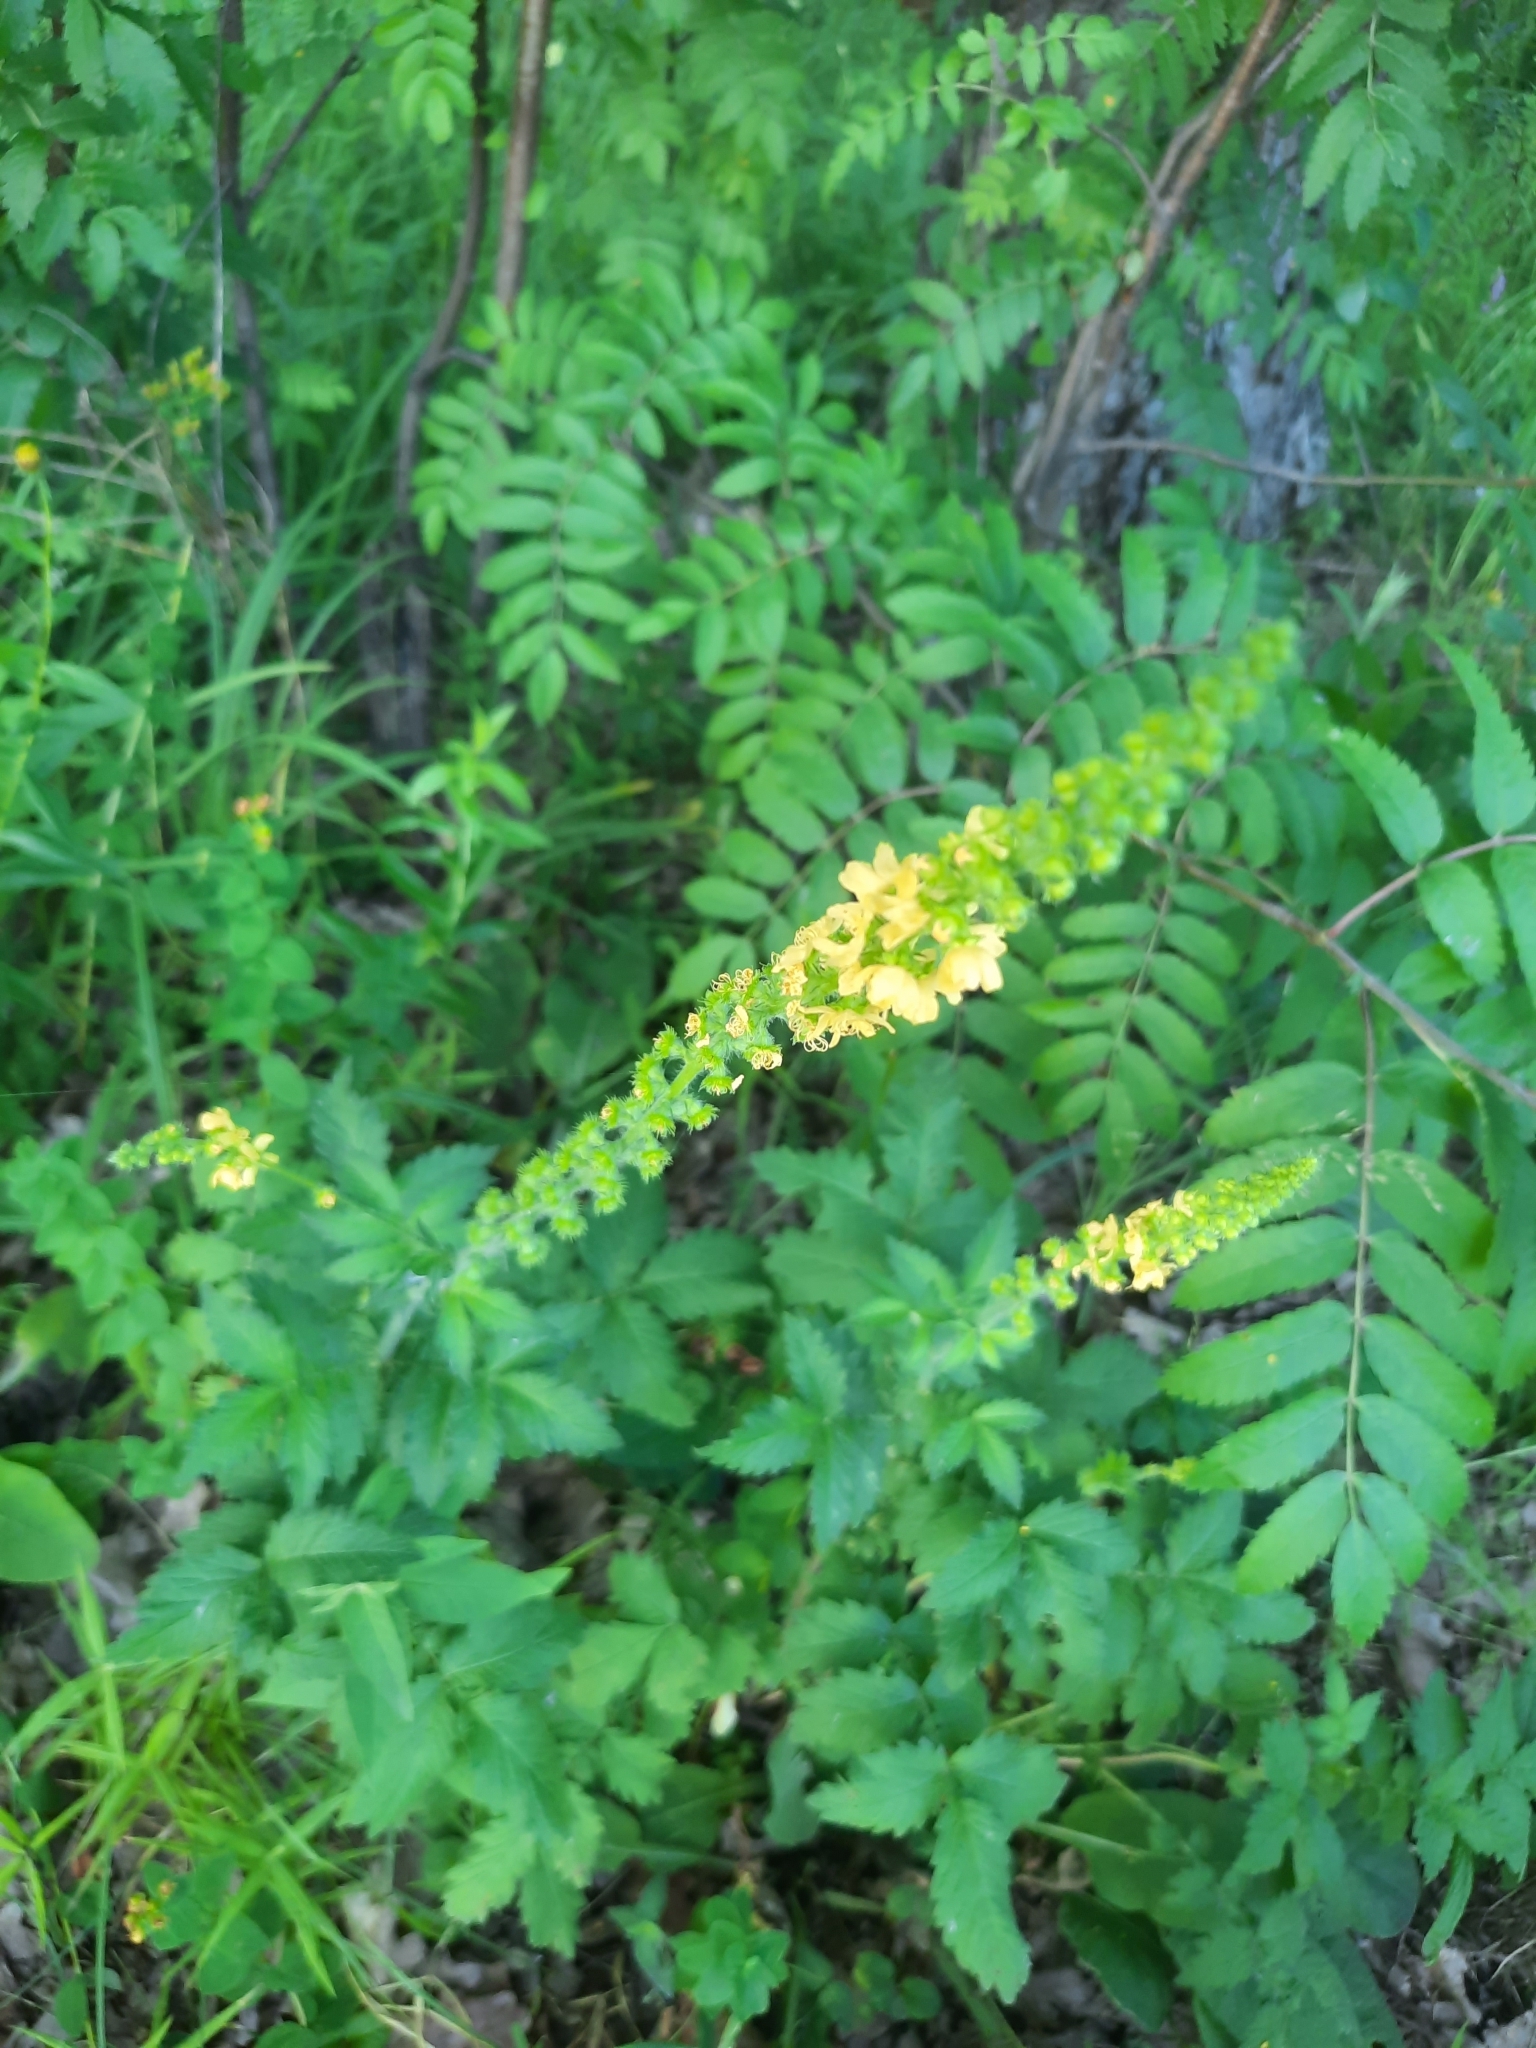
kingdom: Plantae
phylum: Tracheophyta
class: Magnoliopsida
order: Rosales
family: Rosaceae
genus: Agrimonia
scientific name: Agrimonia eupatoria
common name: Agrimony
